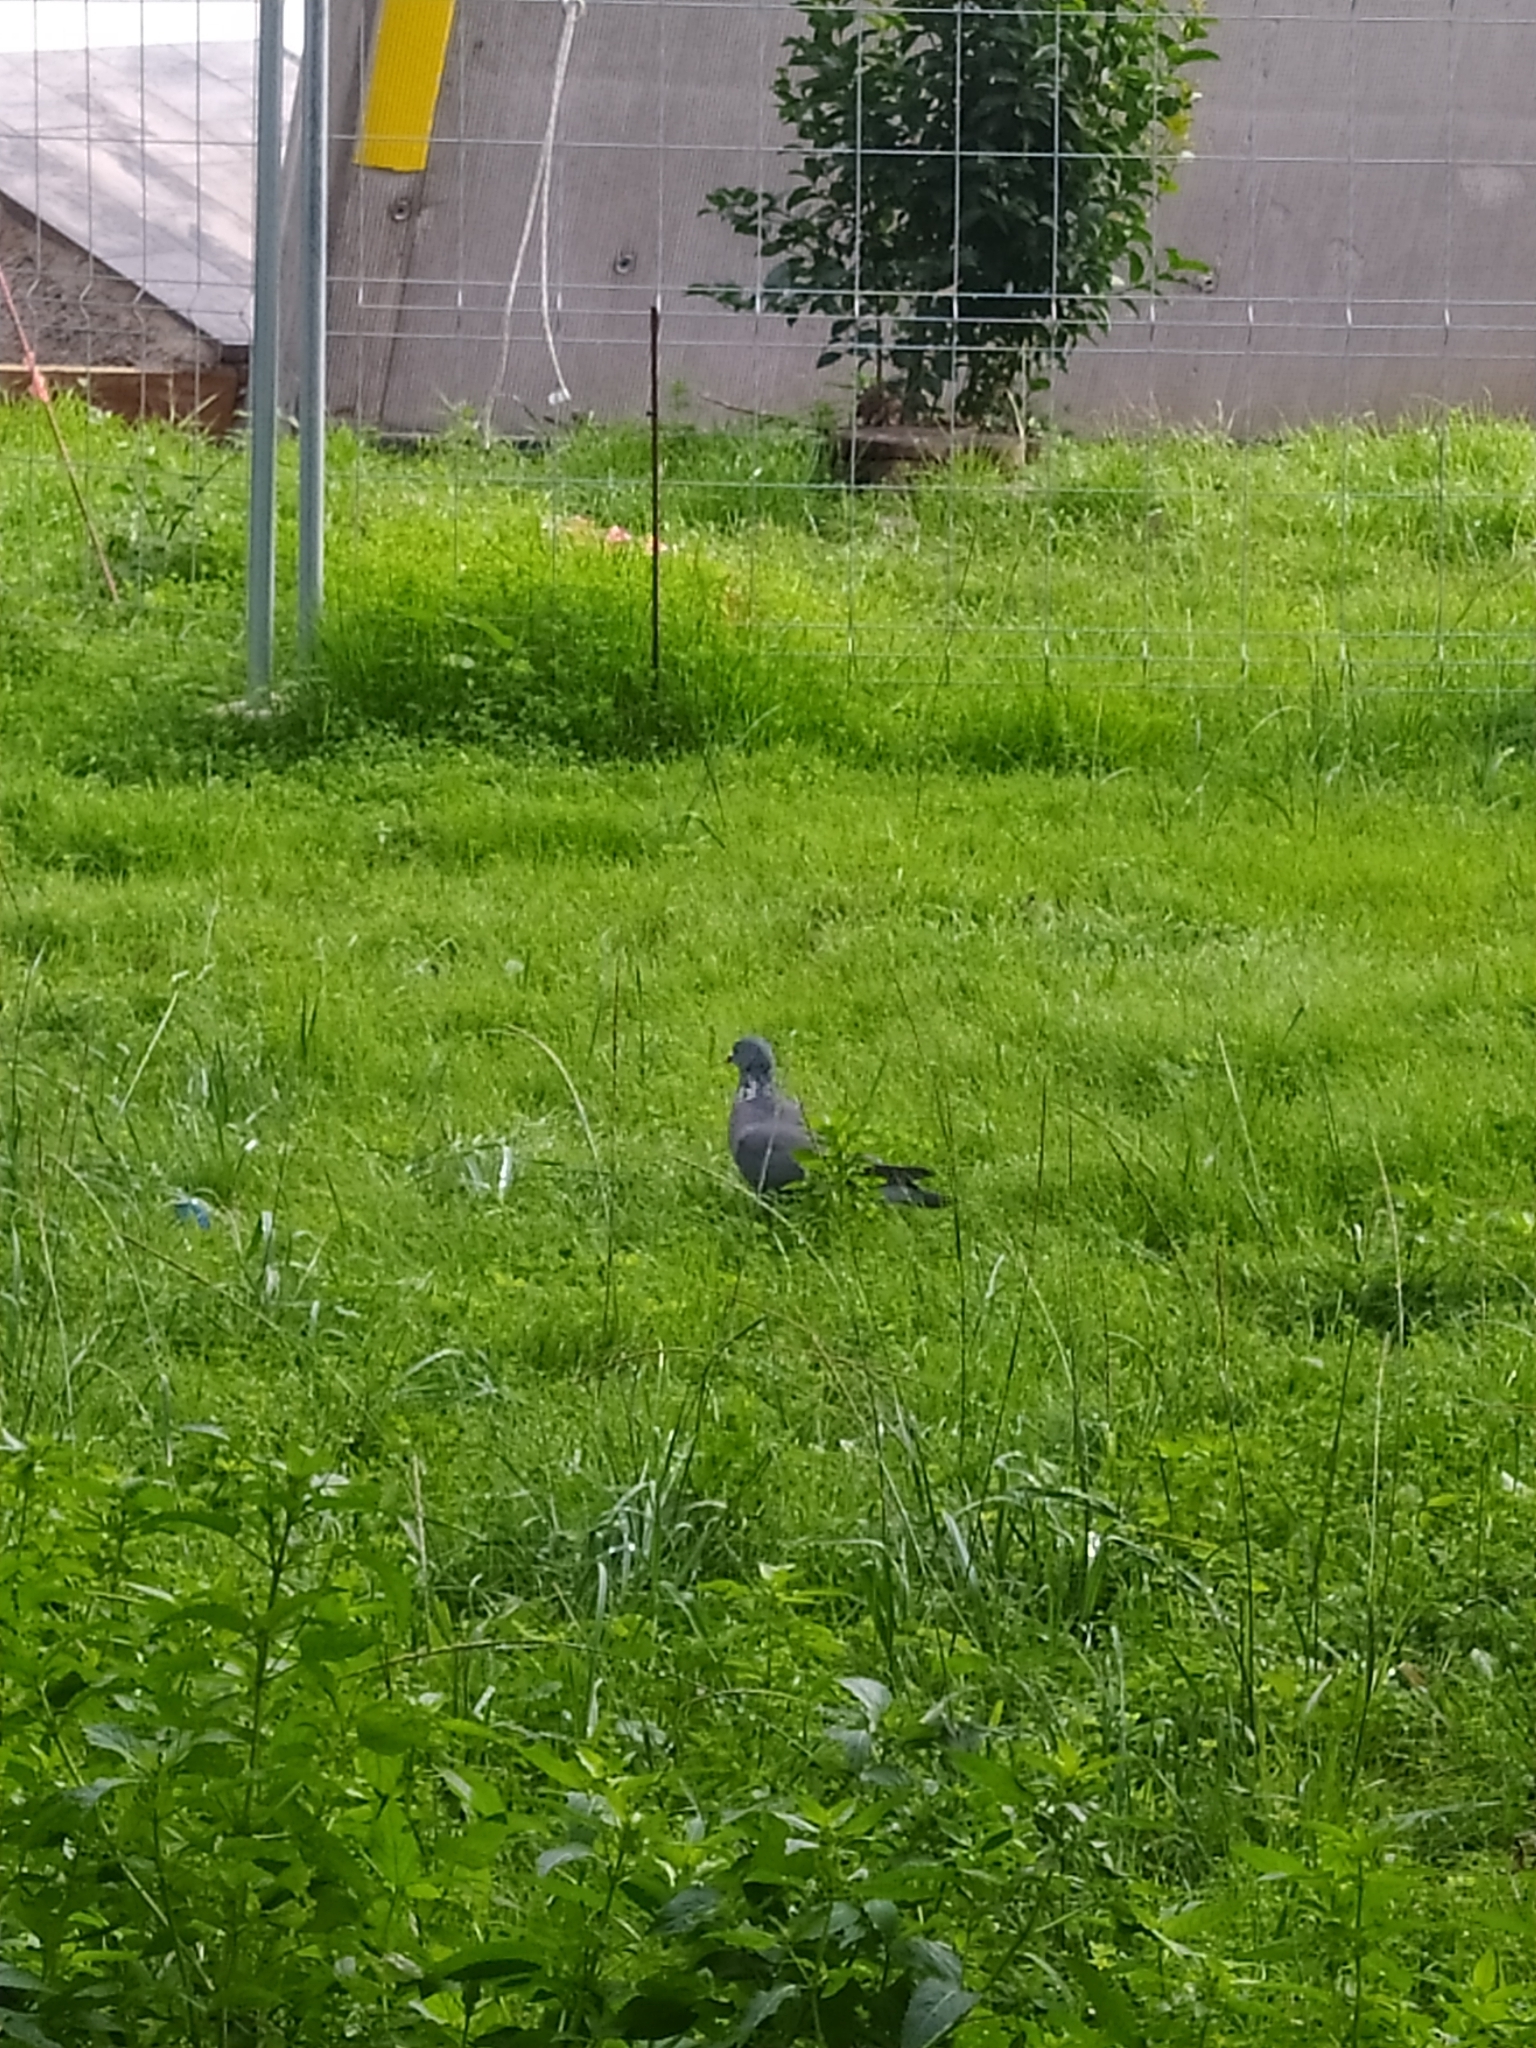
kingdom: Animalia
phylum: Chordata
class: Aves
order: Columbiformes
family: Columbidae
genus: Columba
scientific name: Columba palumbus
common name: Common wood pigeon
